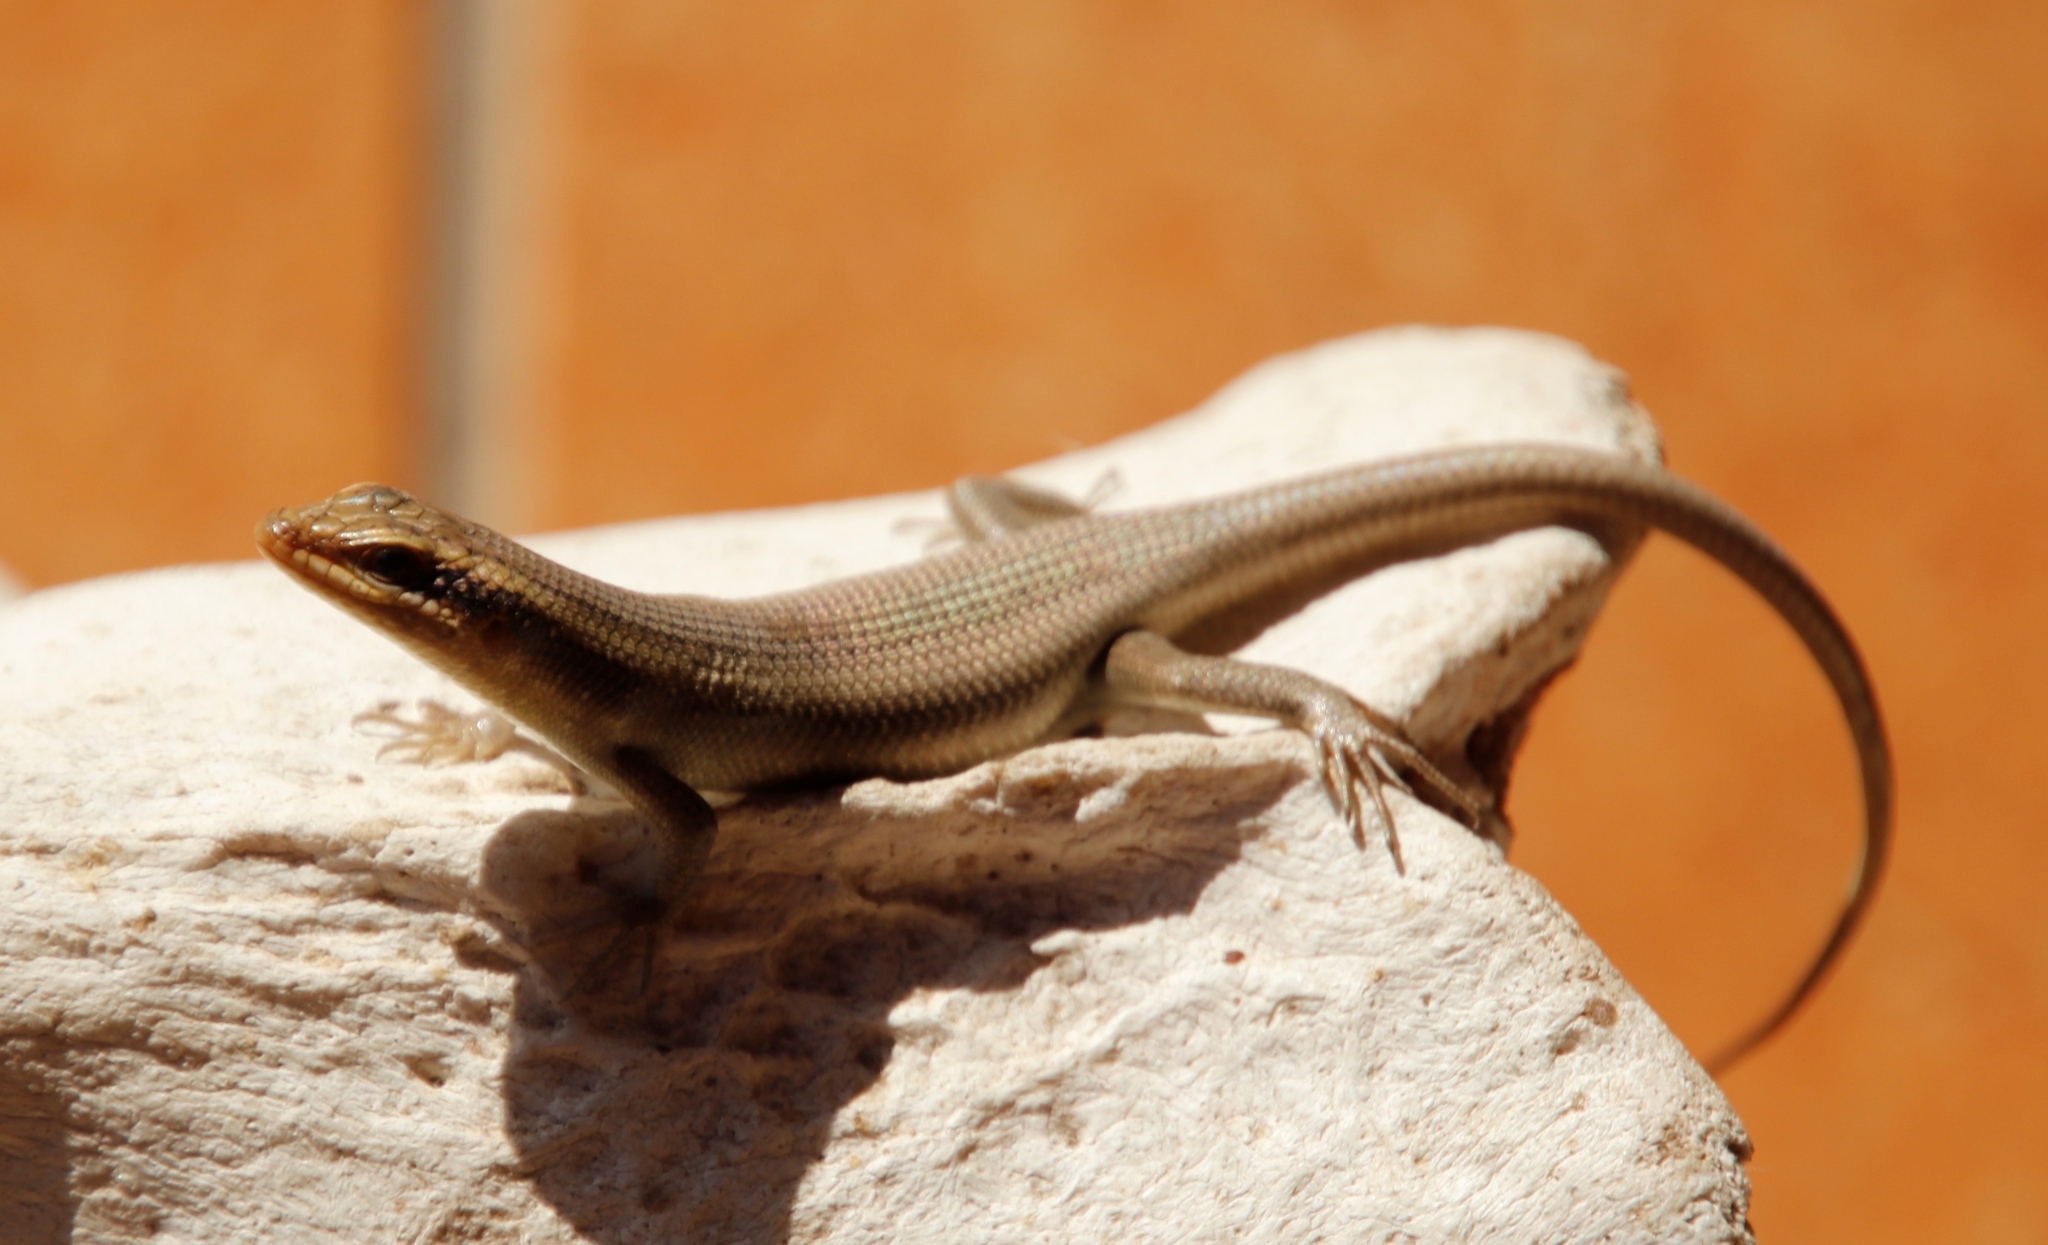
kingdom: Animalia
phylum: Chordata
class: Squamata
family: Scincidae
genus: Trachylepis
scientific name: Trachylepis wahlbergii
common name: Wahlberg’s striped skink
